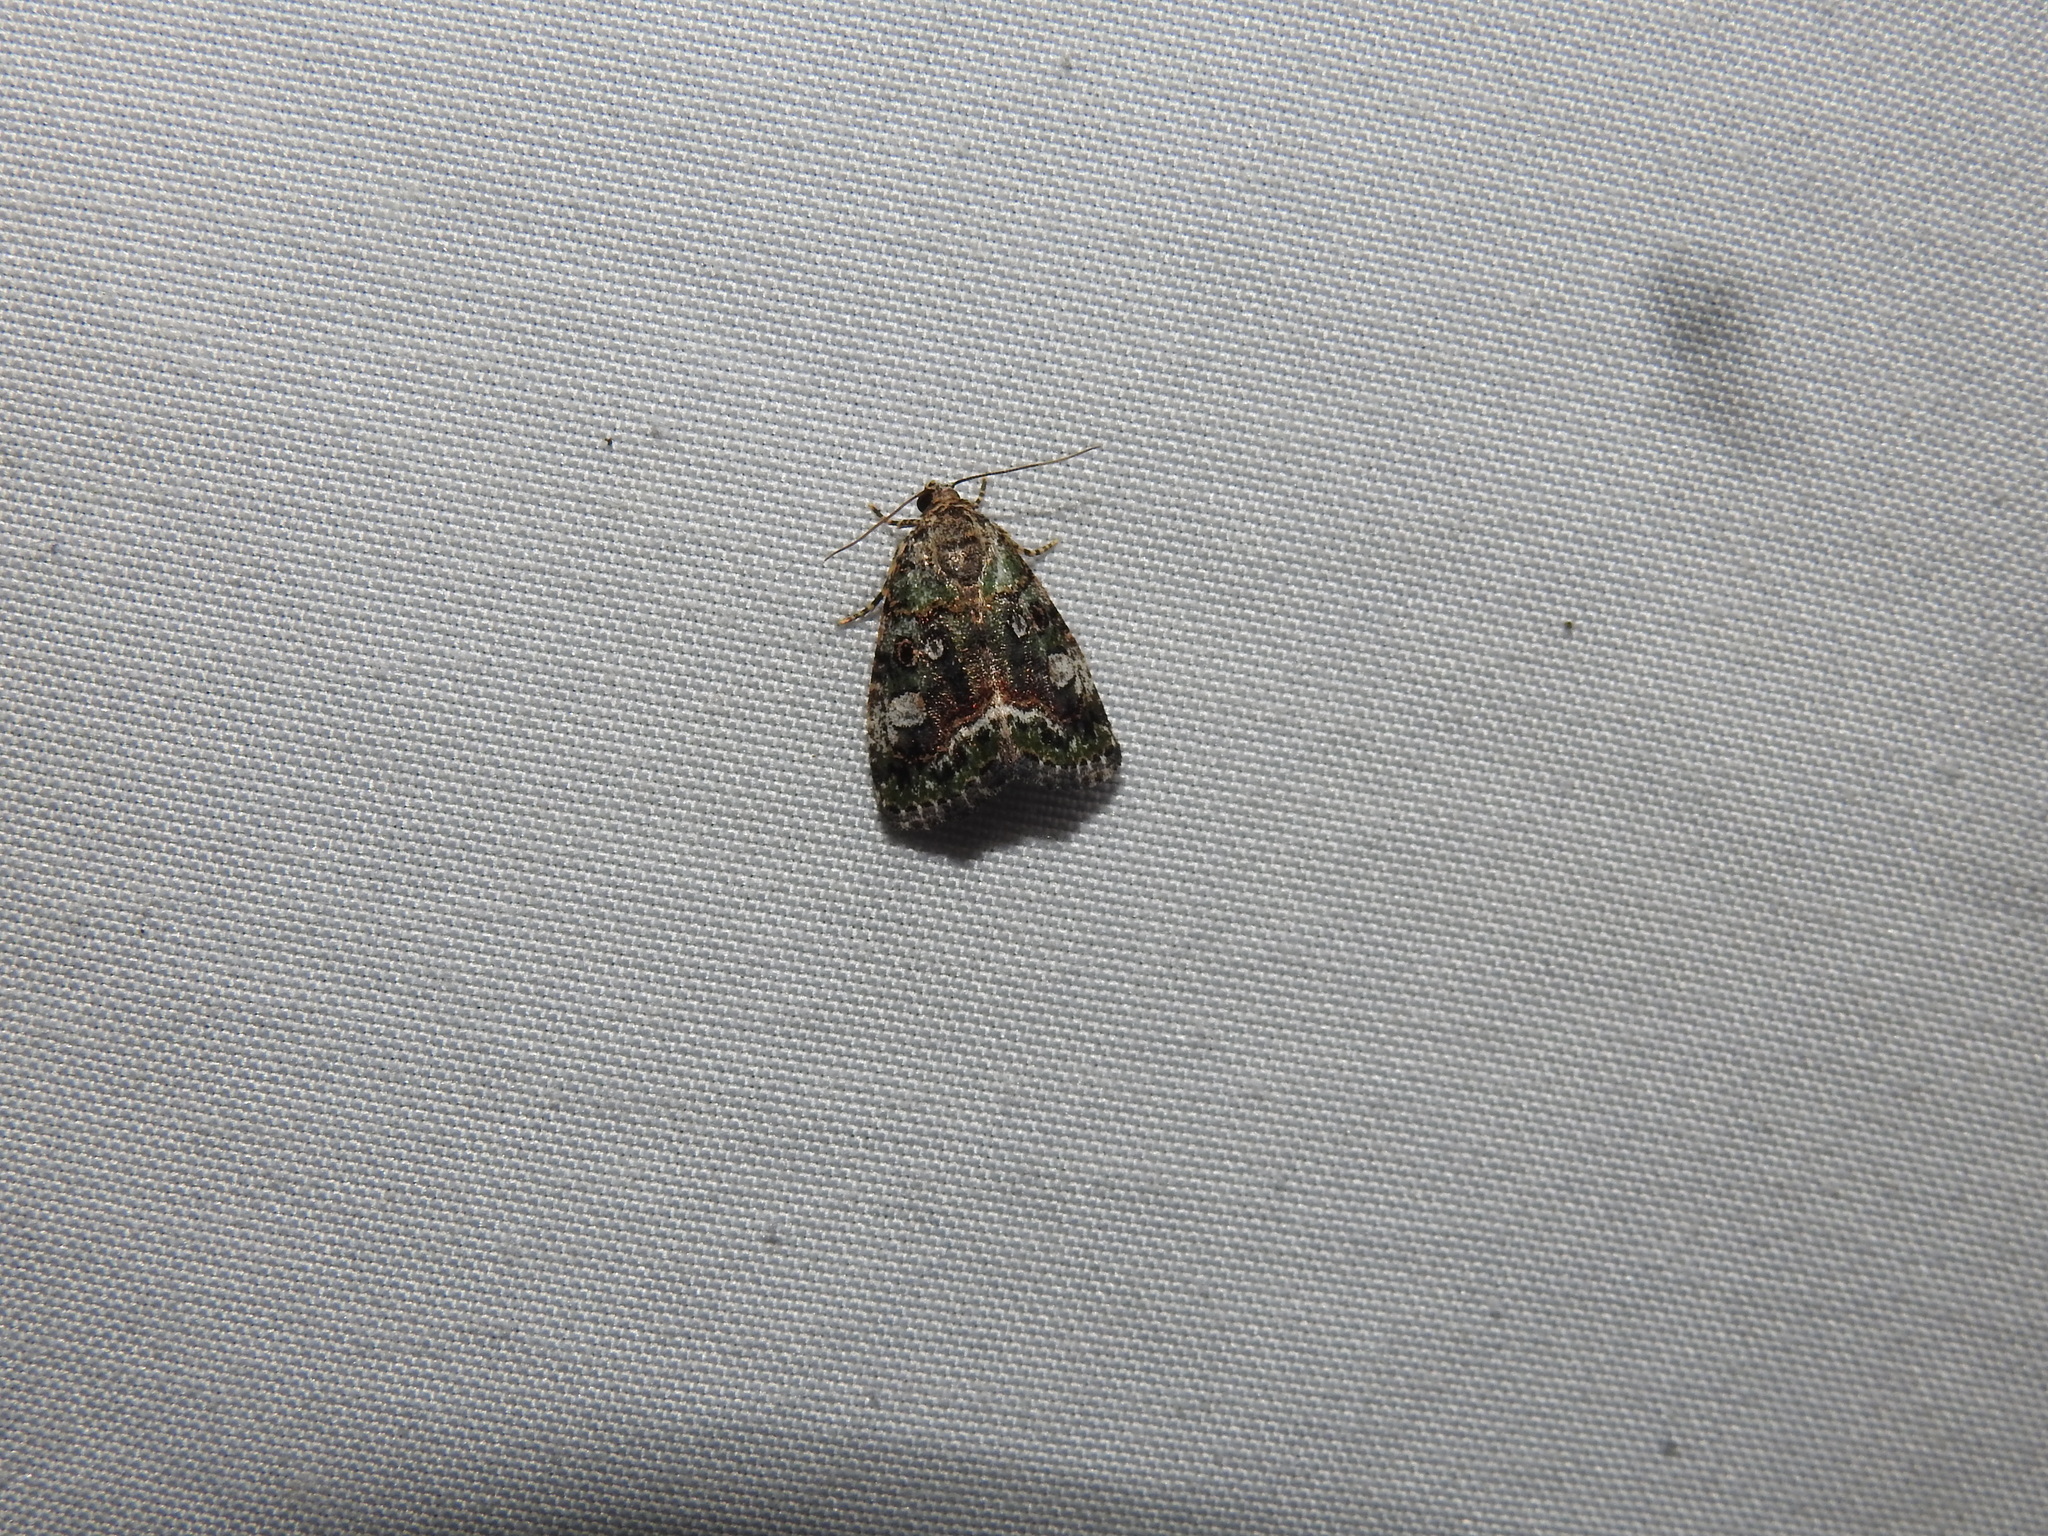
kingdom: Animalia
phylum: Arthropoda
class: Insecta
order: Lepidoptera
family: Noctuidae
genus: Lithacodia
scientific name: Lithacodia musta
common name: Small mossy glyph
